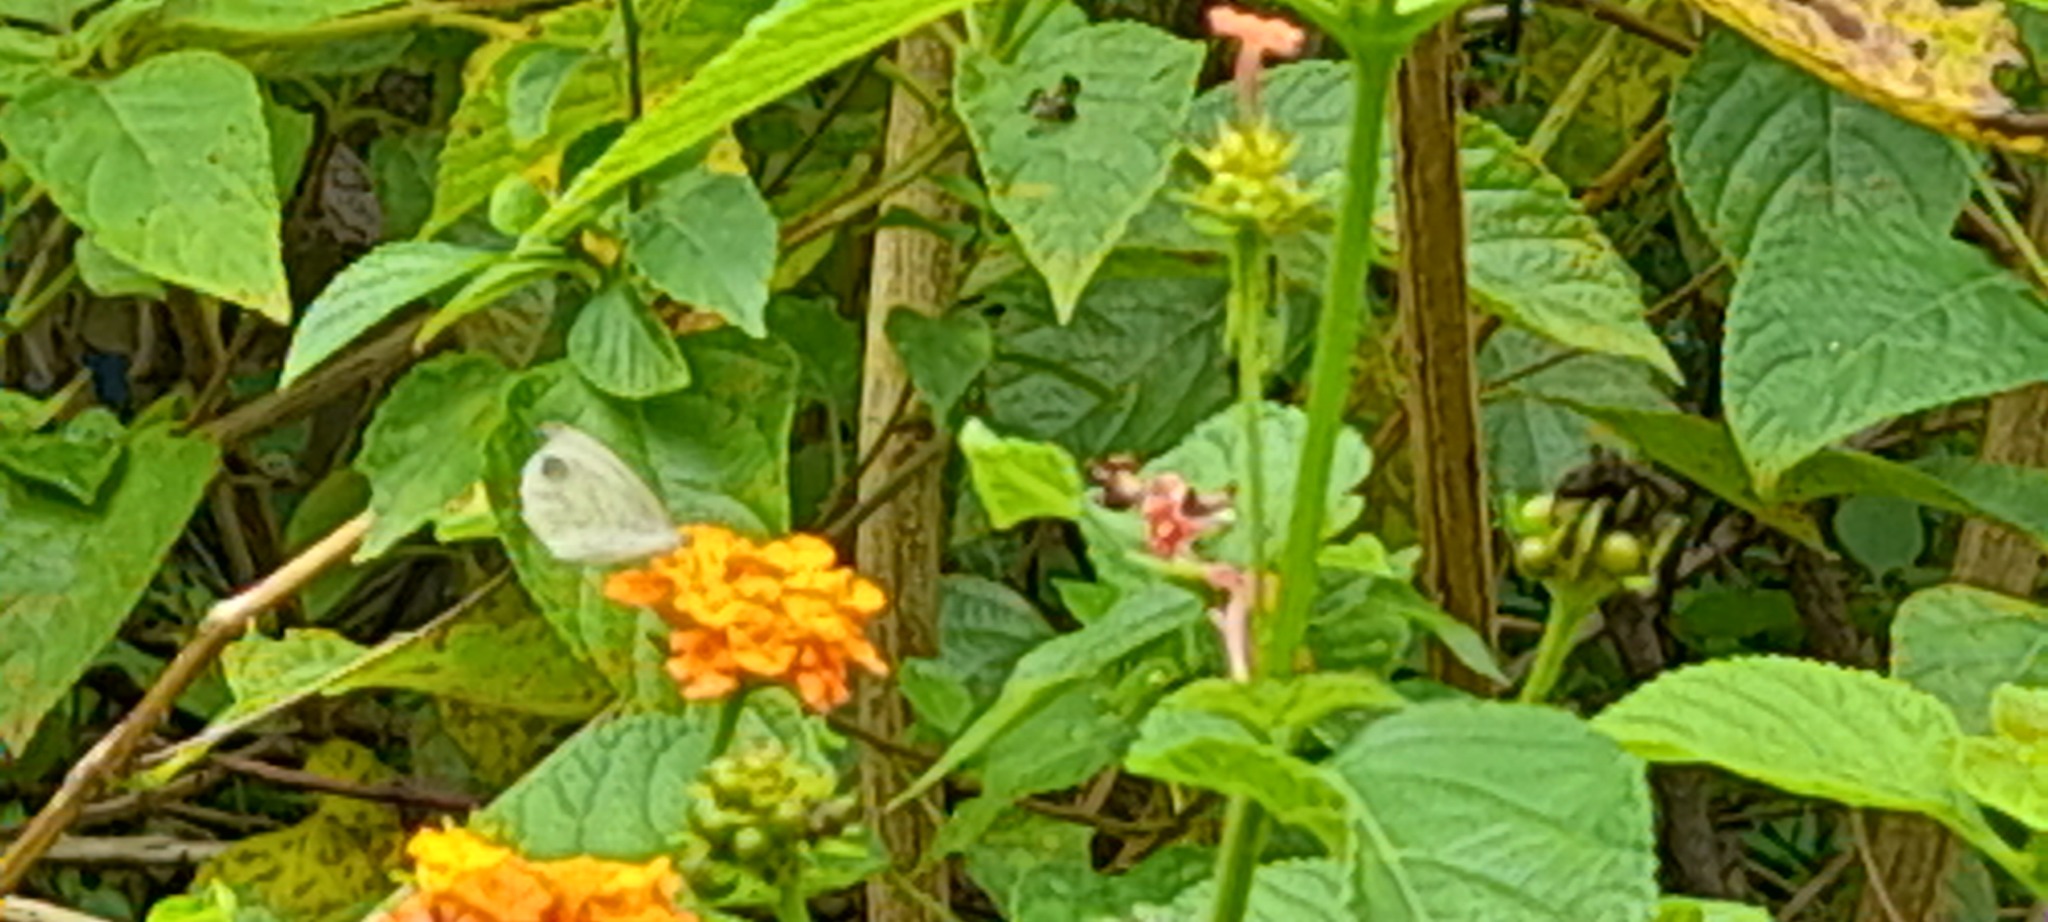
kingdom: Animalia
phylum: Arthropoda
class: Insecta
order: Lepidoptera
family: Pieridae
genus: Leptosia
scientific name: Leptosia nina
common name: Psyche
